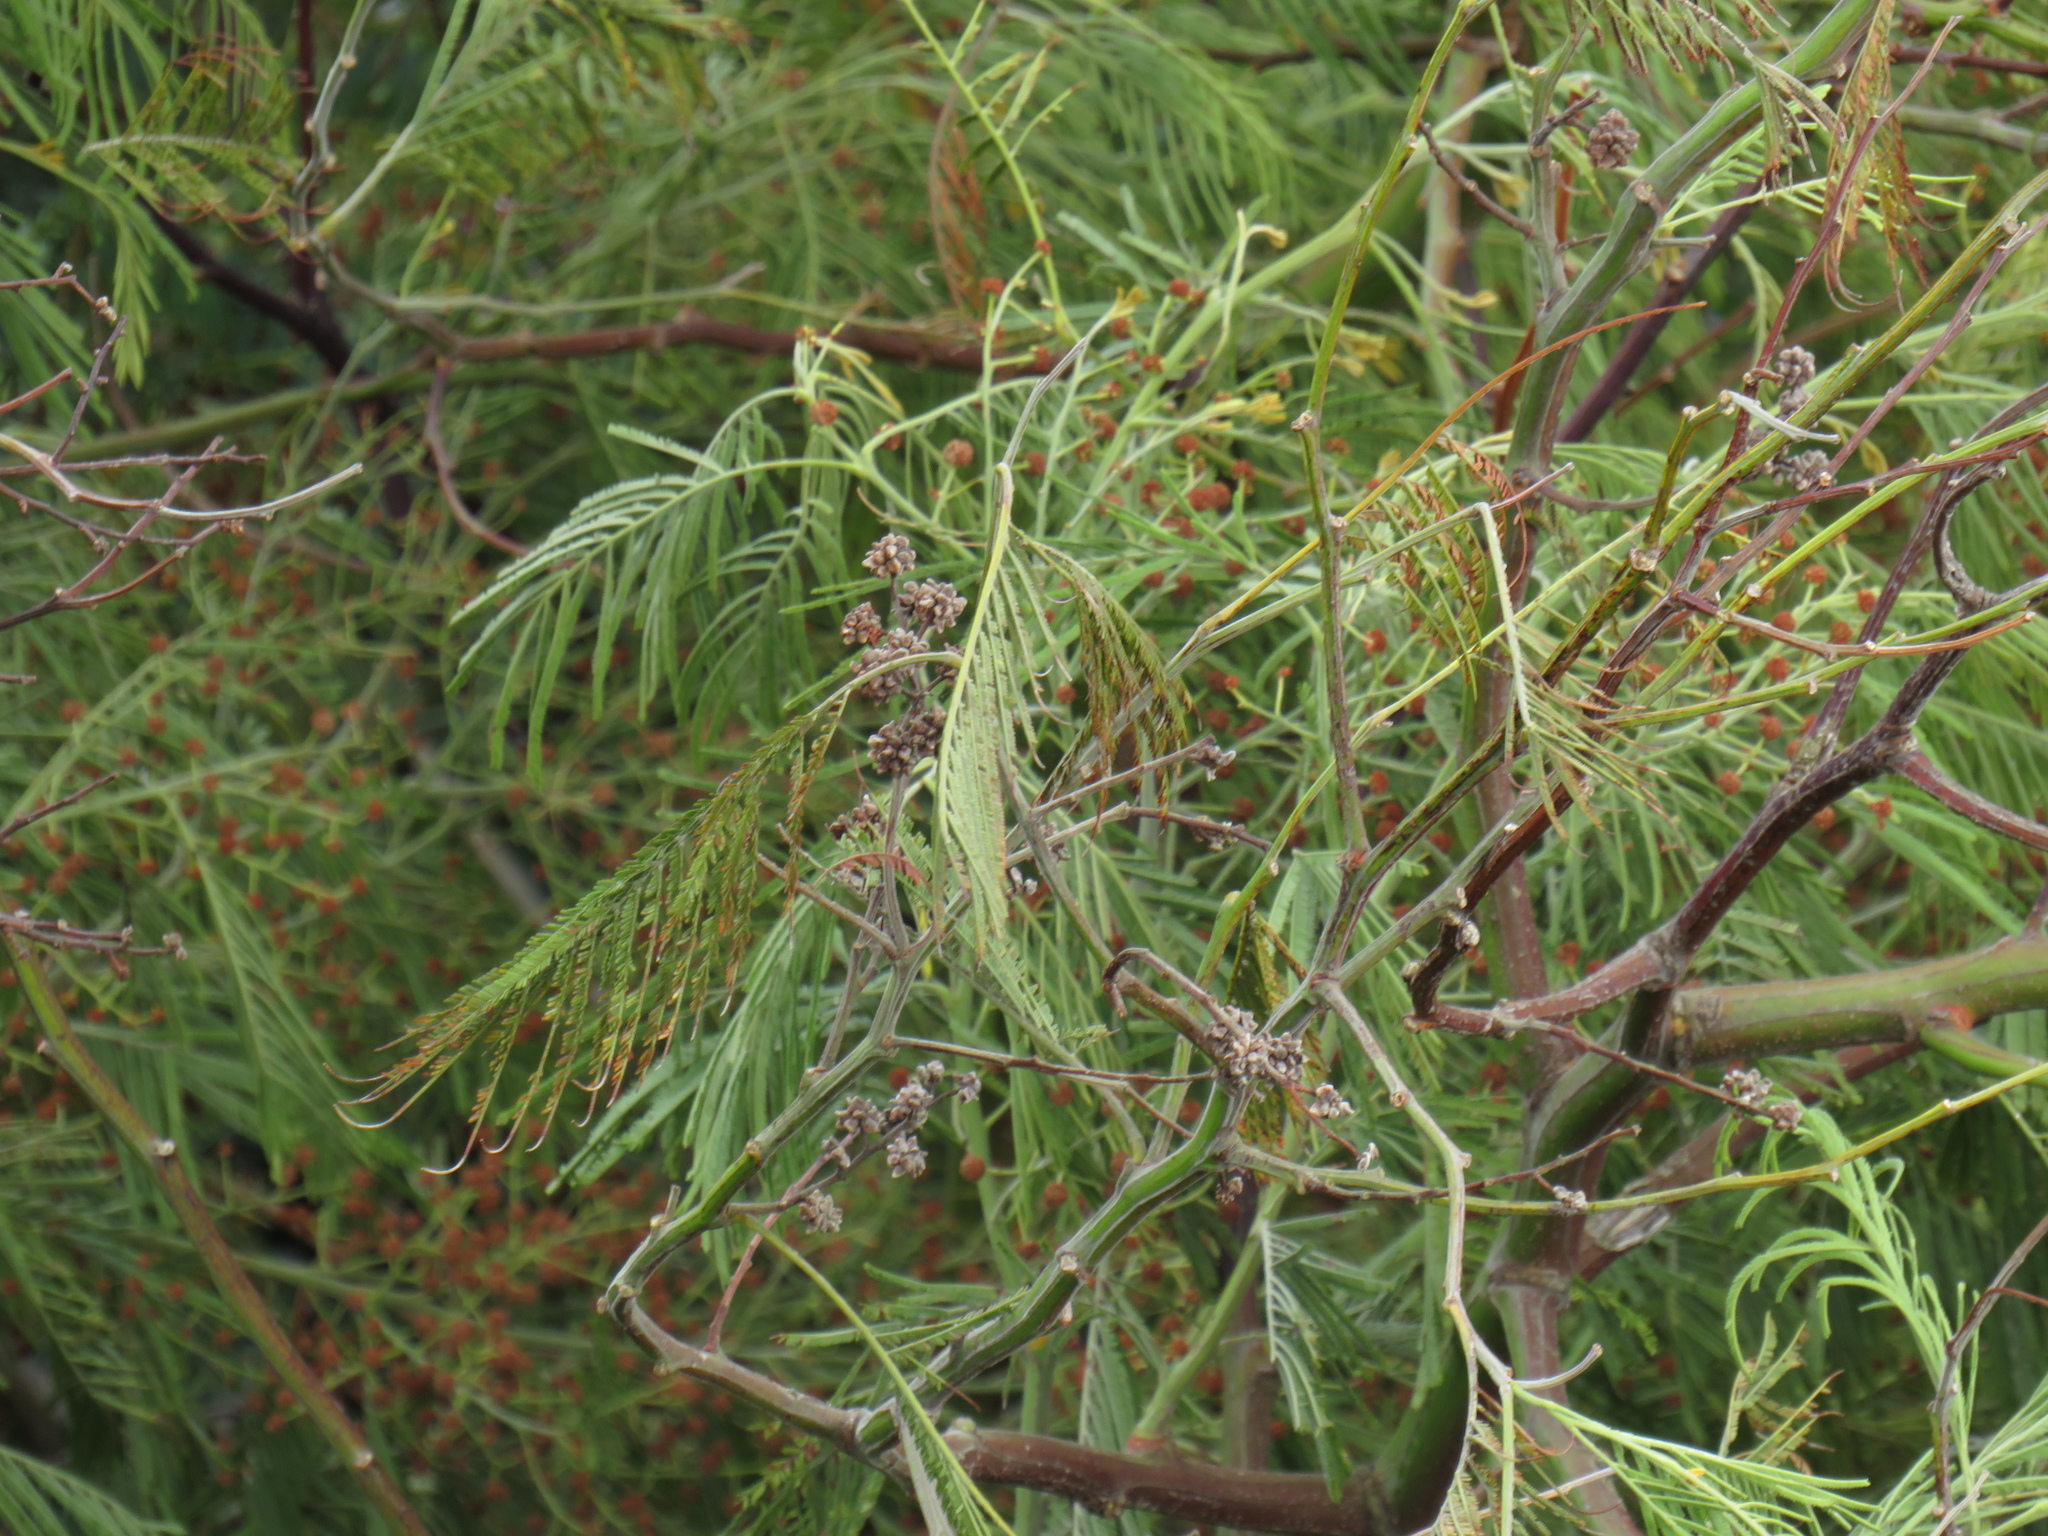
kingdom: Plantae
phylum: Tracheophyta
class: Magnoliopsida
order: Fabales
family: Fabaceae
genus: Acacia
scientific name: Acacia mearnsii
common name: Black wattle
